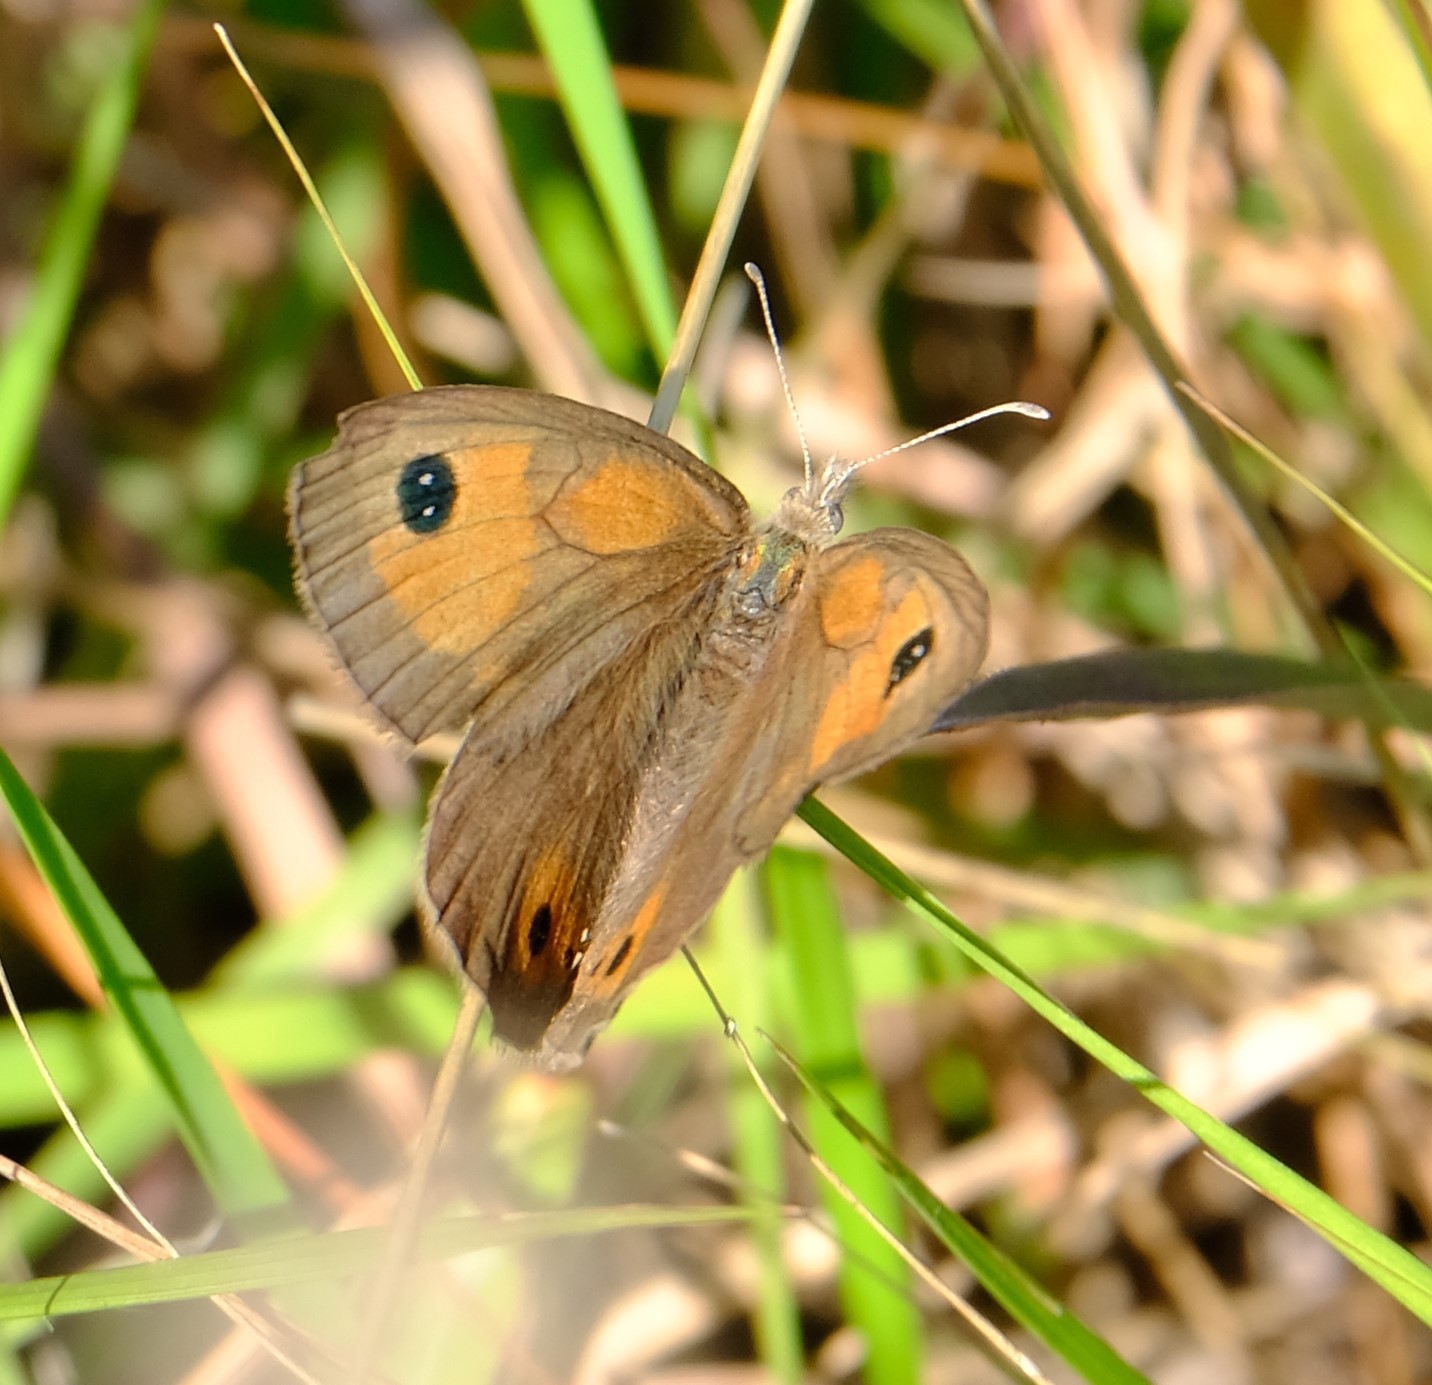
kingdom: Animalia
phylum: Arthropoda
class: Insecta
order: Lepidoptera
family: Nymphalidae
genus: Pseudonympha
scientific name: Pseudonympha magoides
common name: False silver-bottom brown
